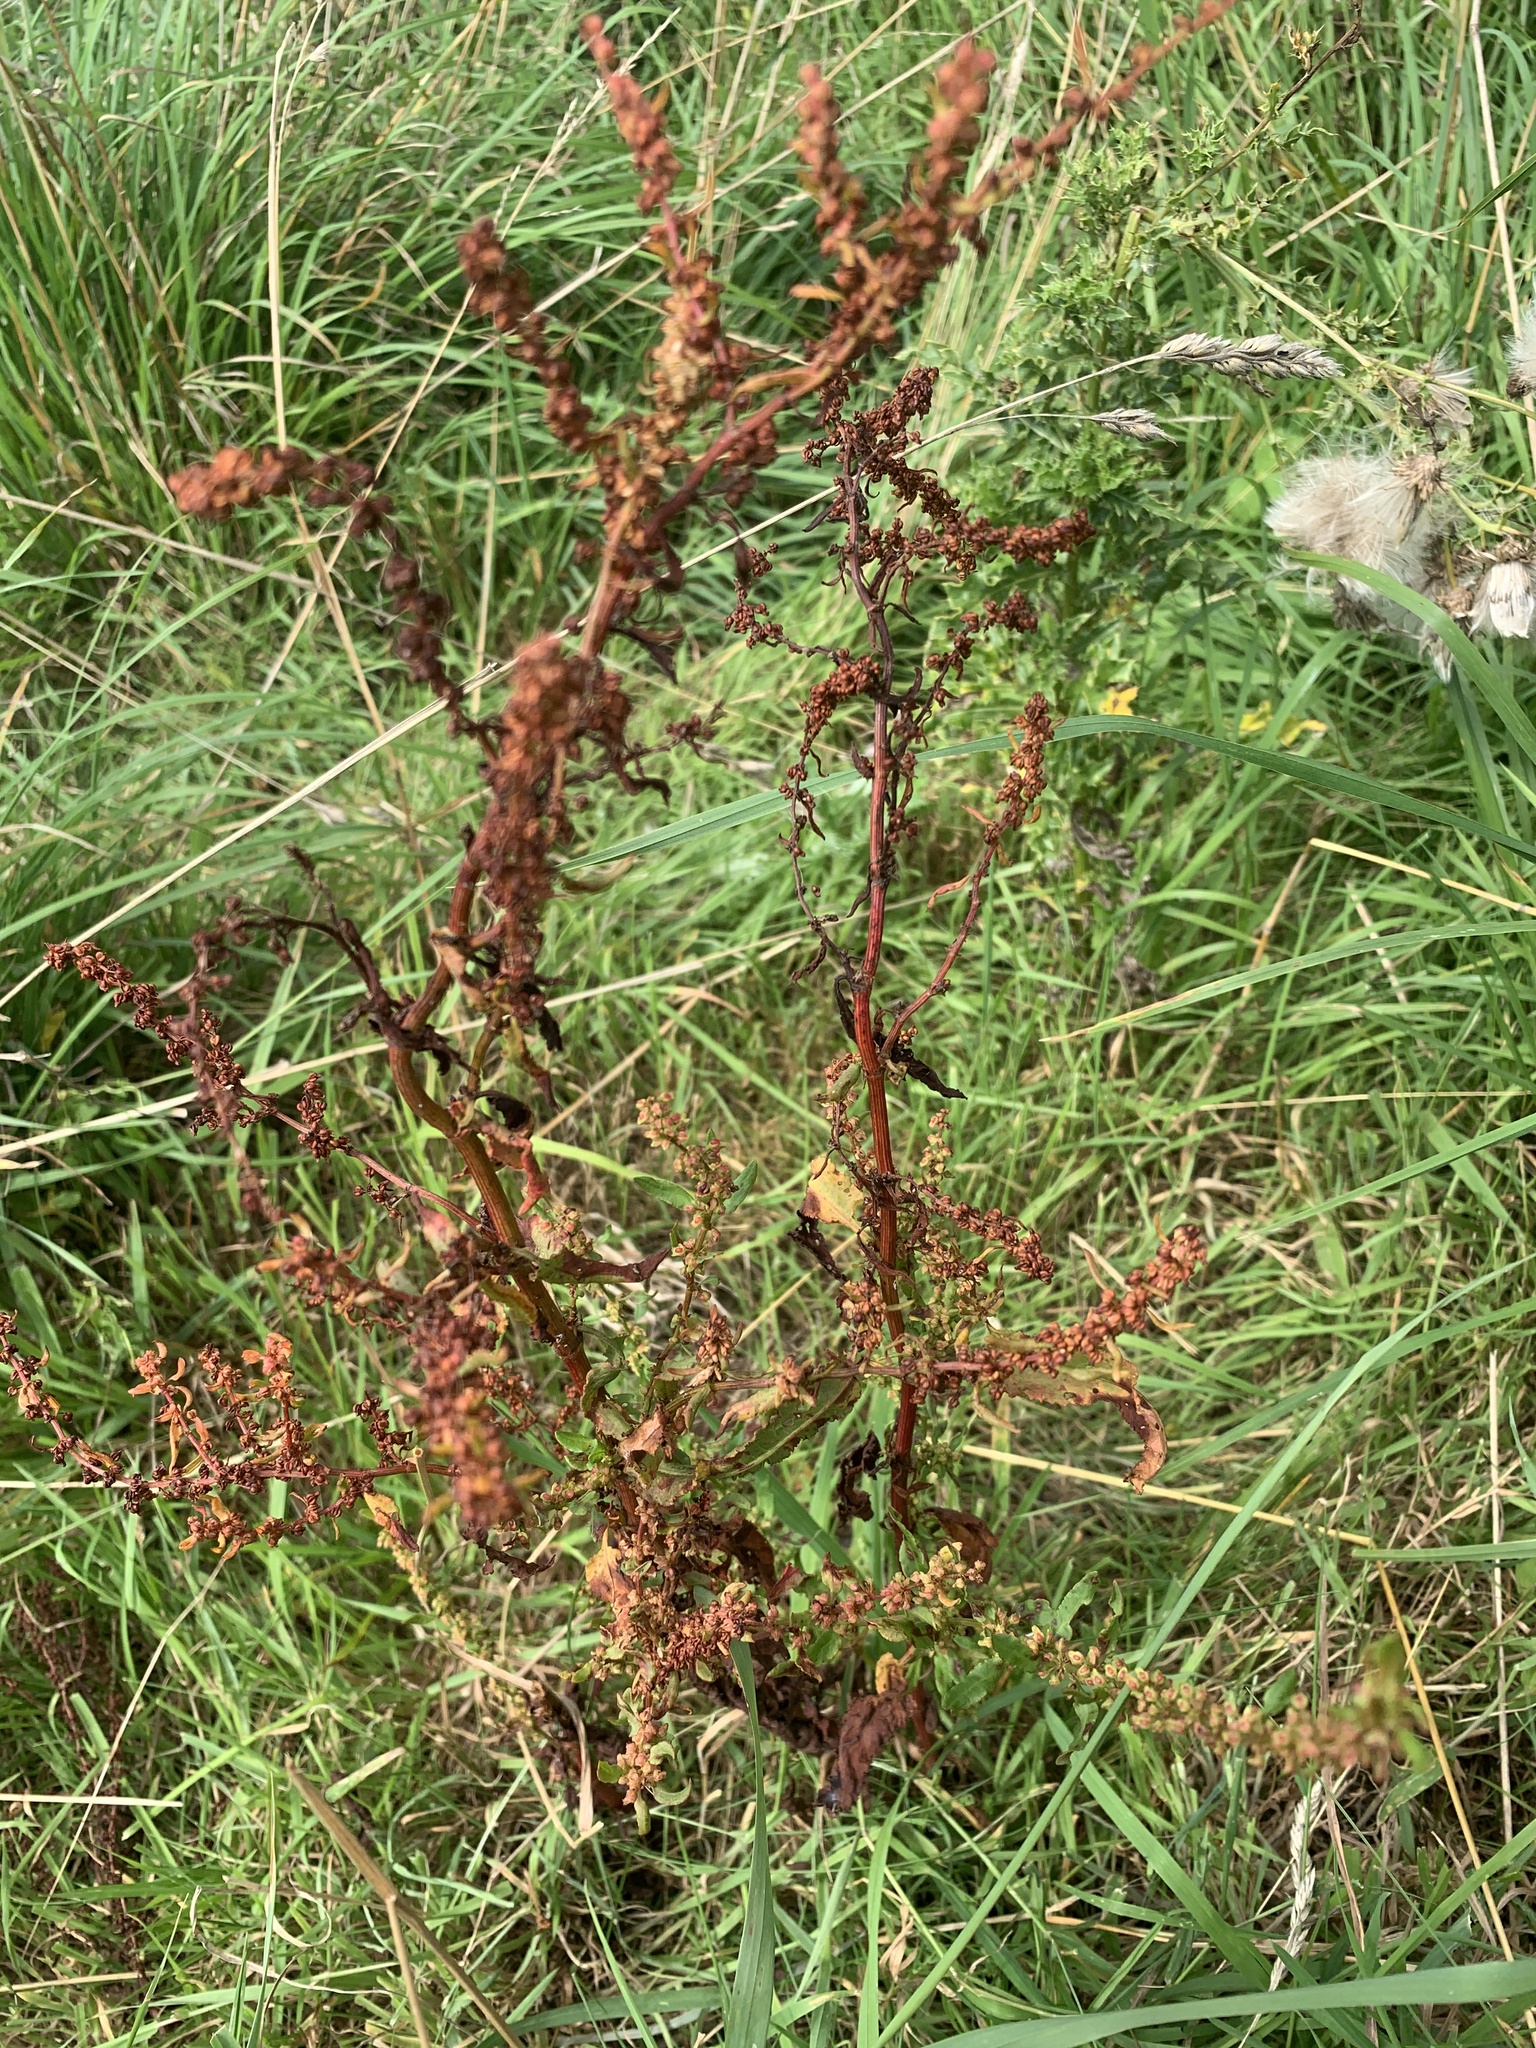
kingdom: Plantae
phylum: Tracheophyta
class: Magnoliopsida
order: Caryophyllales
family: Polygonaceae
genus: Rumex
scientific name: Rumex conglomeratus
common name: Clustered dock
